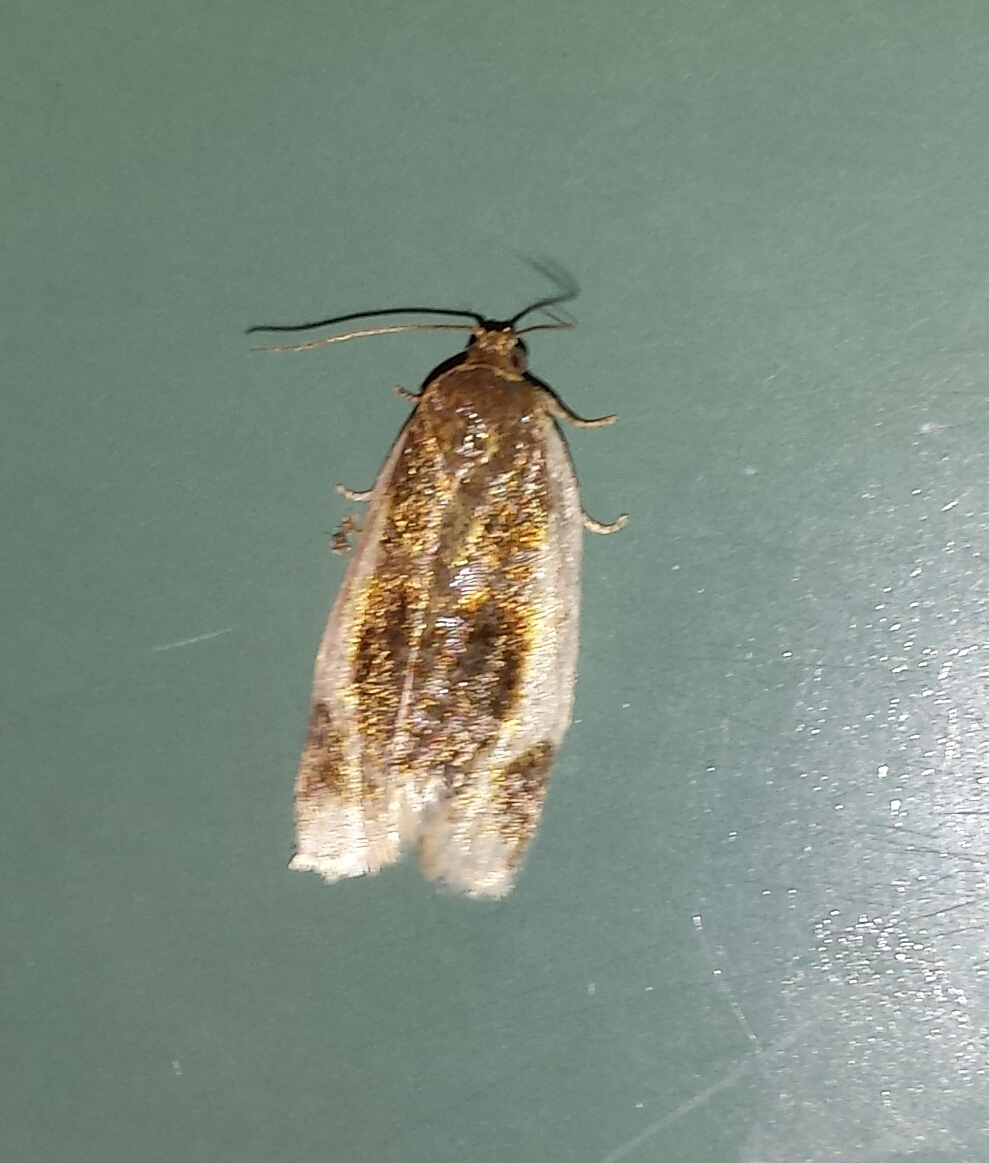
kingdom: Animalia
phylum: Arthropoda
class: Insecta
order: Lepidoptera
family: Tortricidae
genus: Clepsis
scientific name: Clepsis melaleucanus
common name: American apple tortrix
